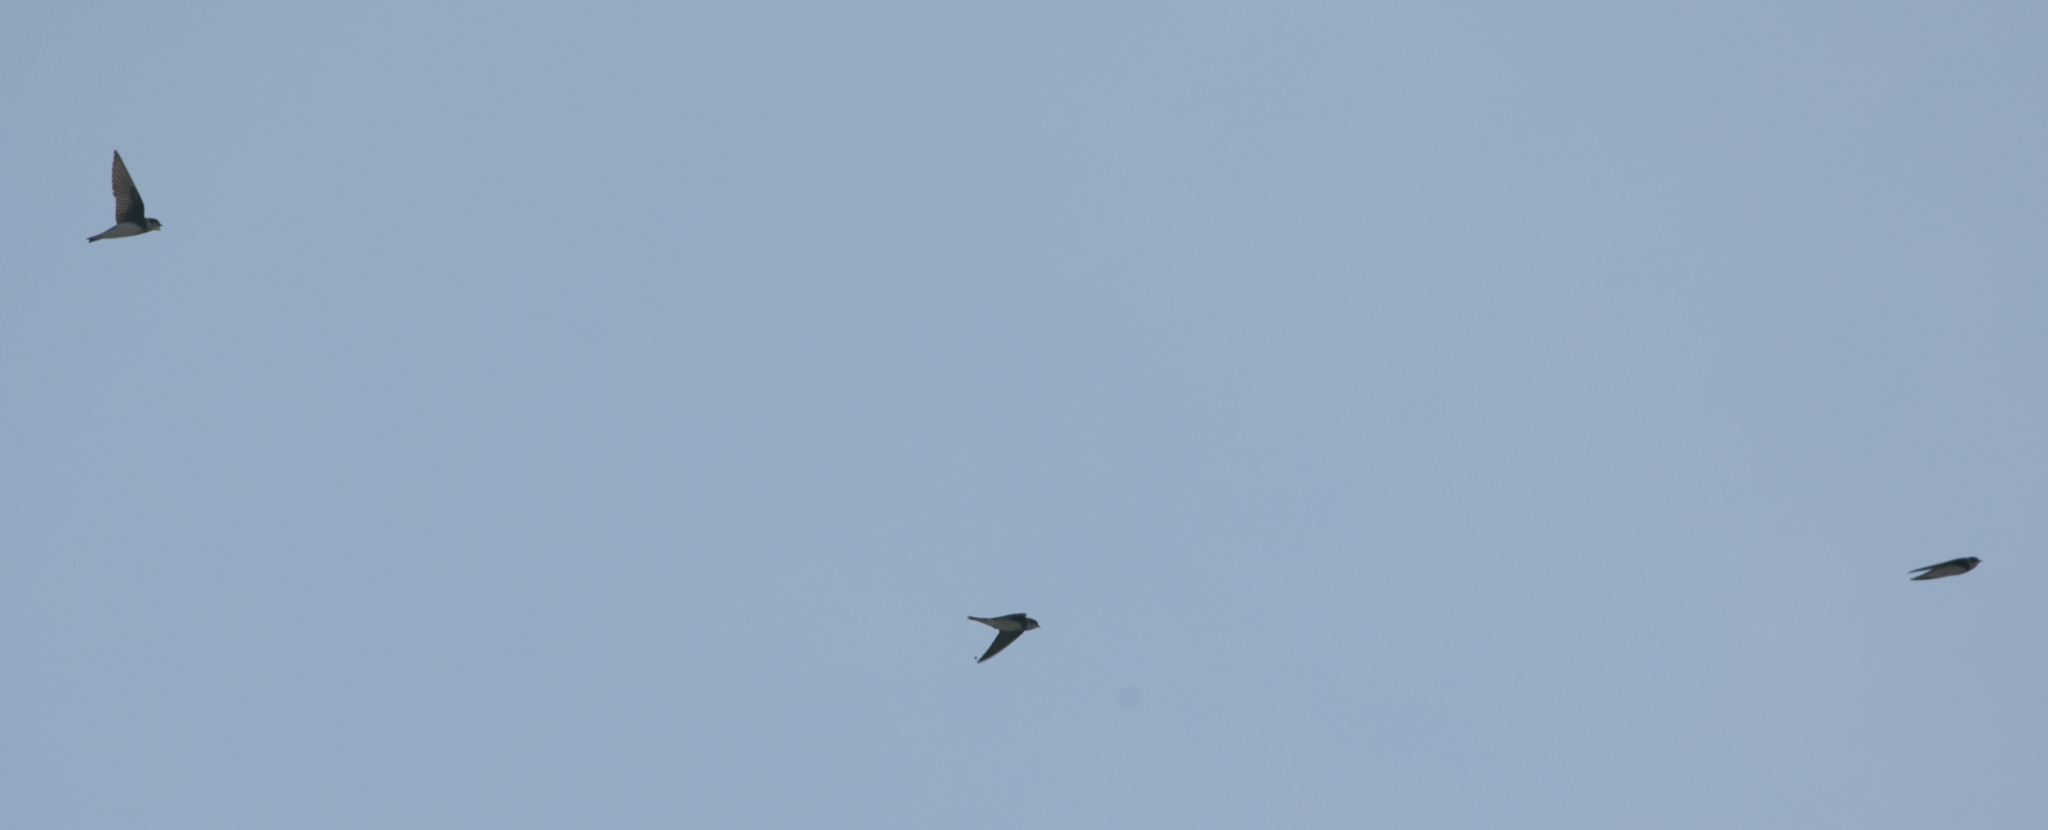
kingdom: Animalia
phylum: Chordata
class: Aves
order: Passeriformes
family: Hirundinidae
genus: Riparia
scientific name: Riparia riparia
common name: Sand martin
